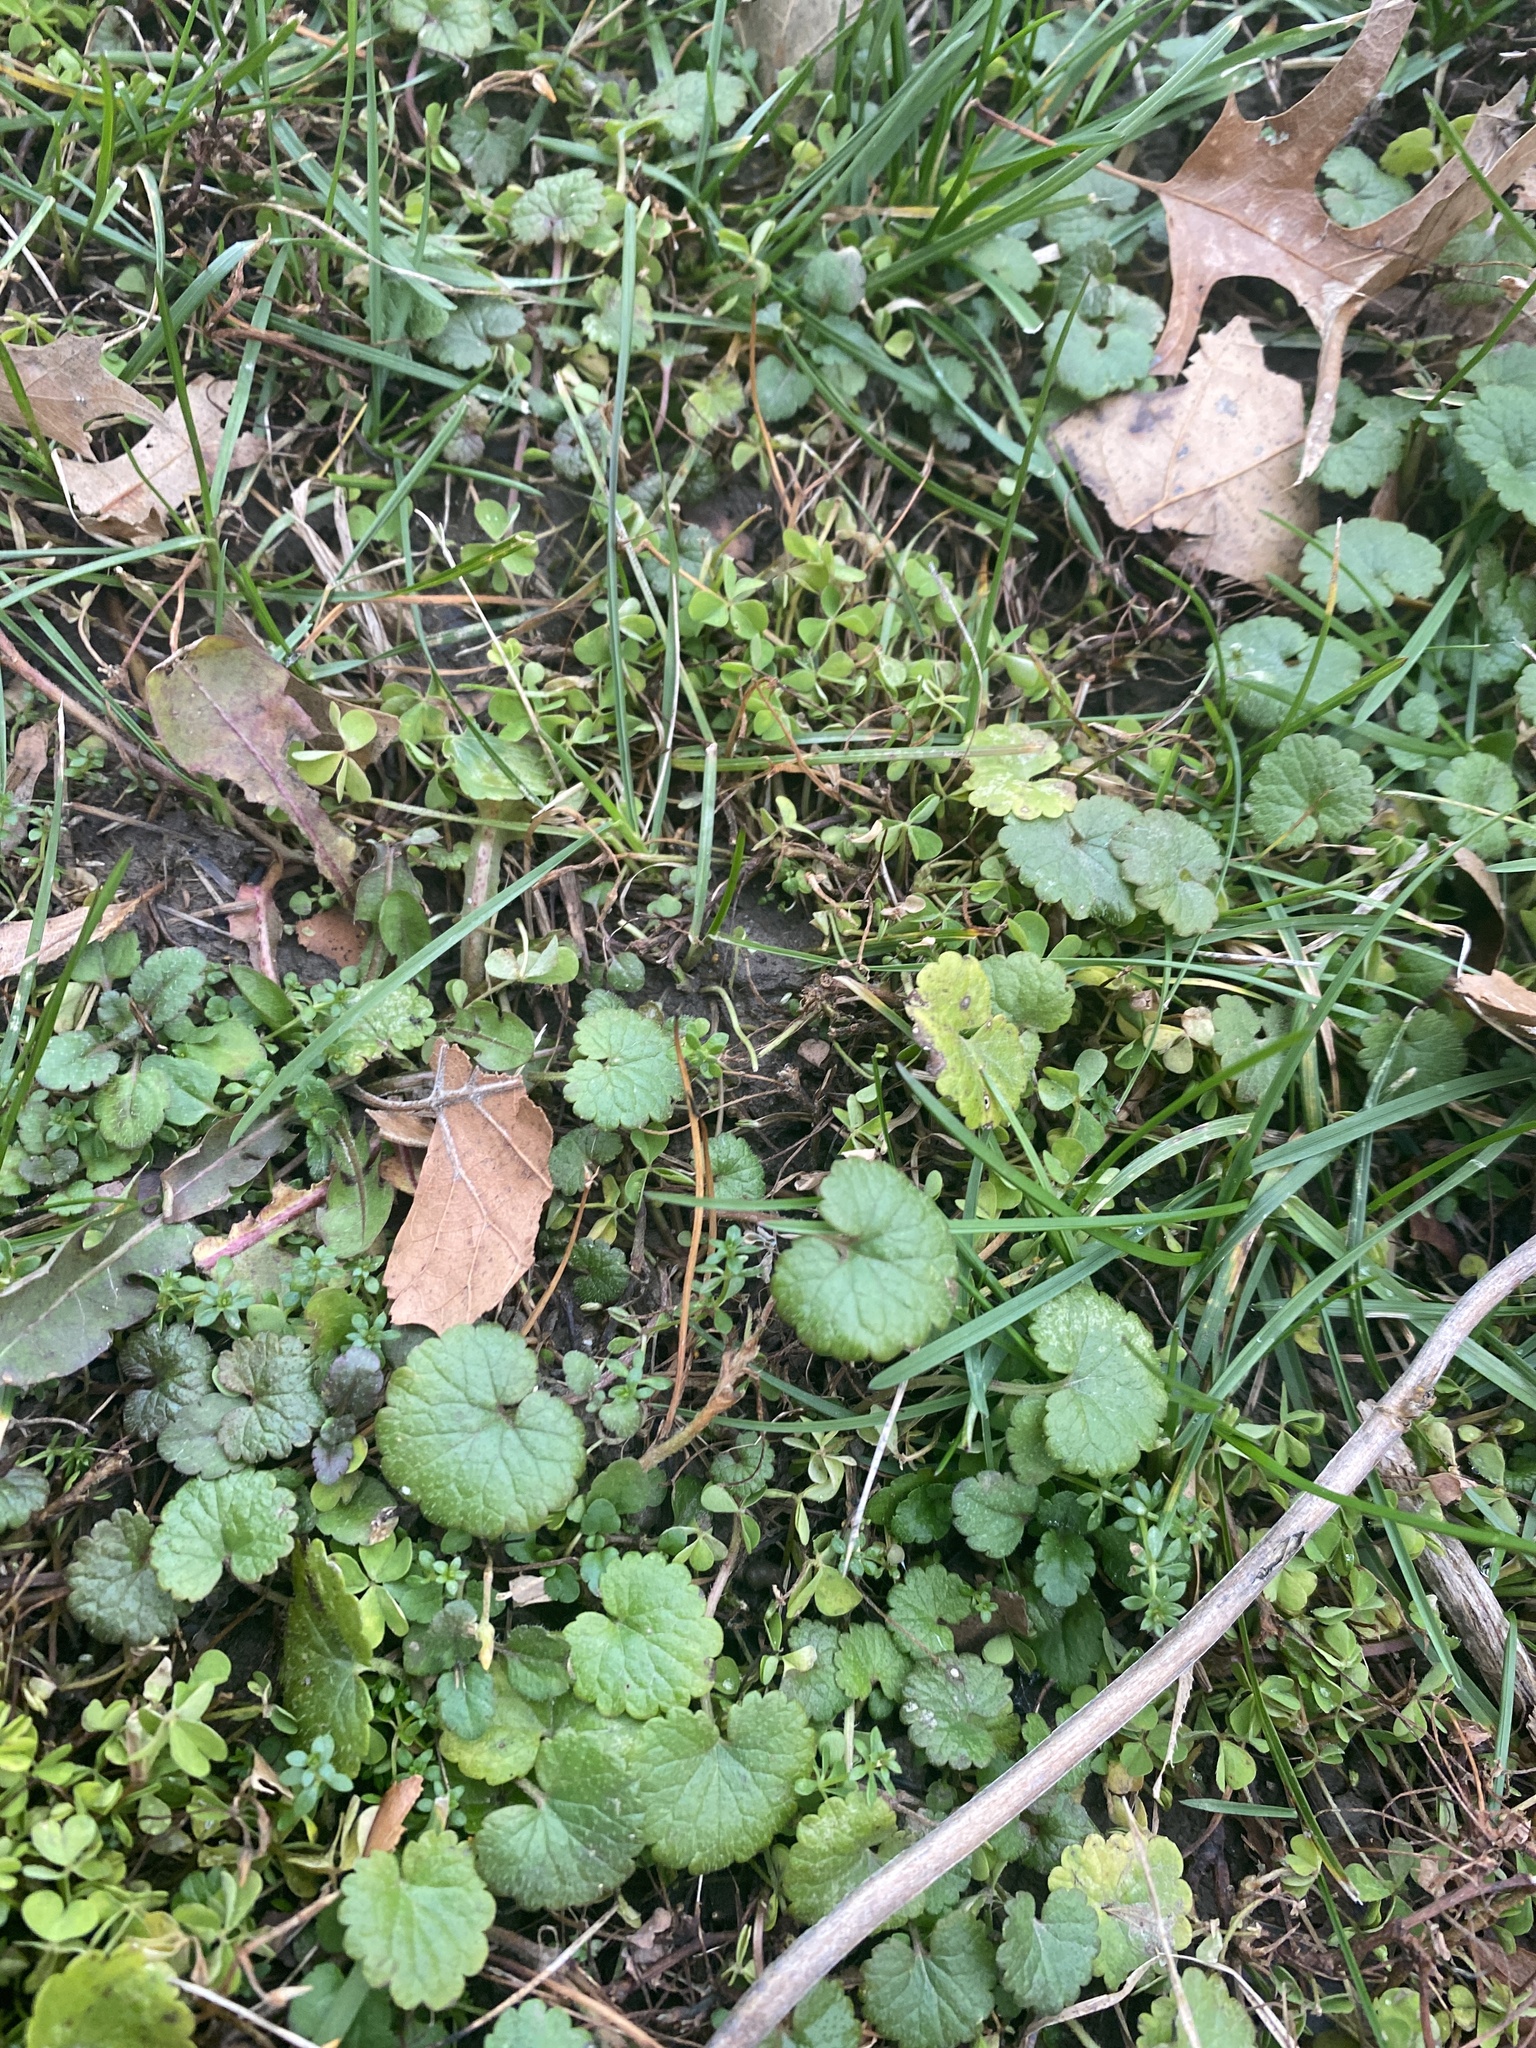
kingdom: Plantae
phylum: Tracheophyta
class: Magnoliopsida
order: Lamiales
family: Lamiaceae
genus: Glechoma
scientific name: Glechoma hederacea
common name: Ground ivy
